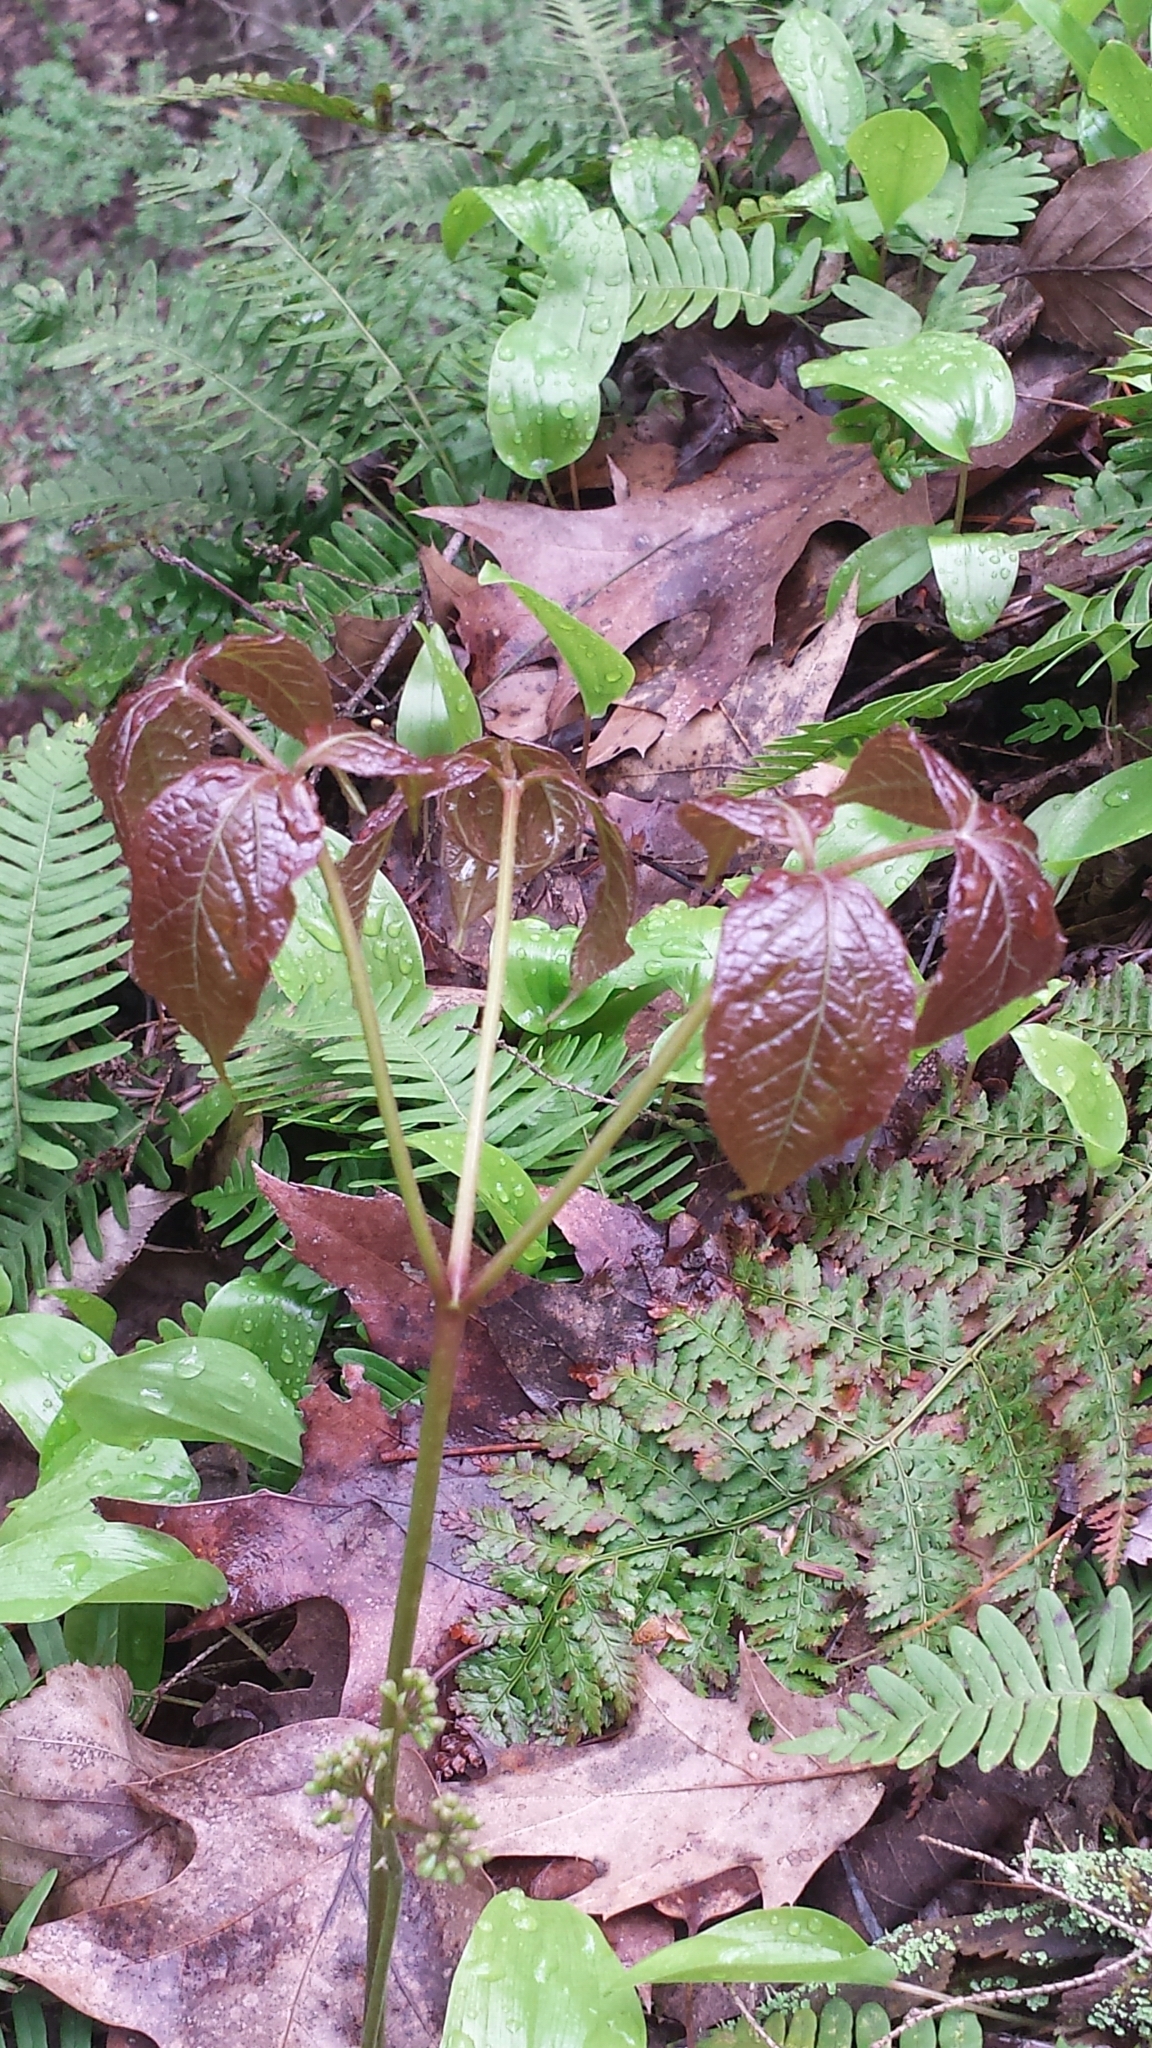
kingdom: Plantae
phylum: Tracheophyta
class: Magnoliopsida
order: Apiales
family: Araliaceae
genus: Aralia
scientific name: Aralia nudicaulis
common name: Wild sarsaparilla
